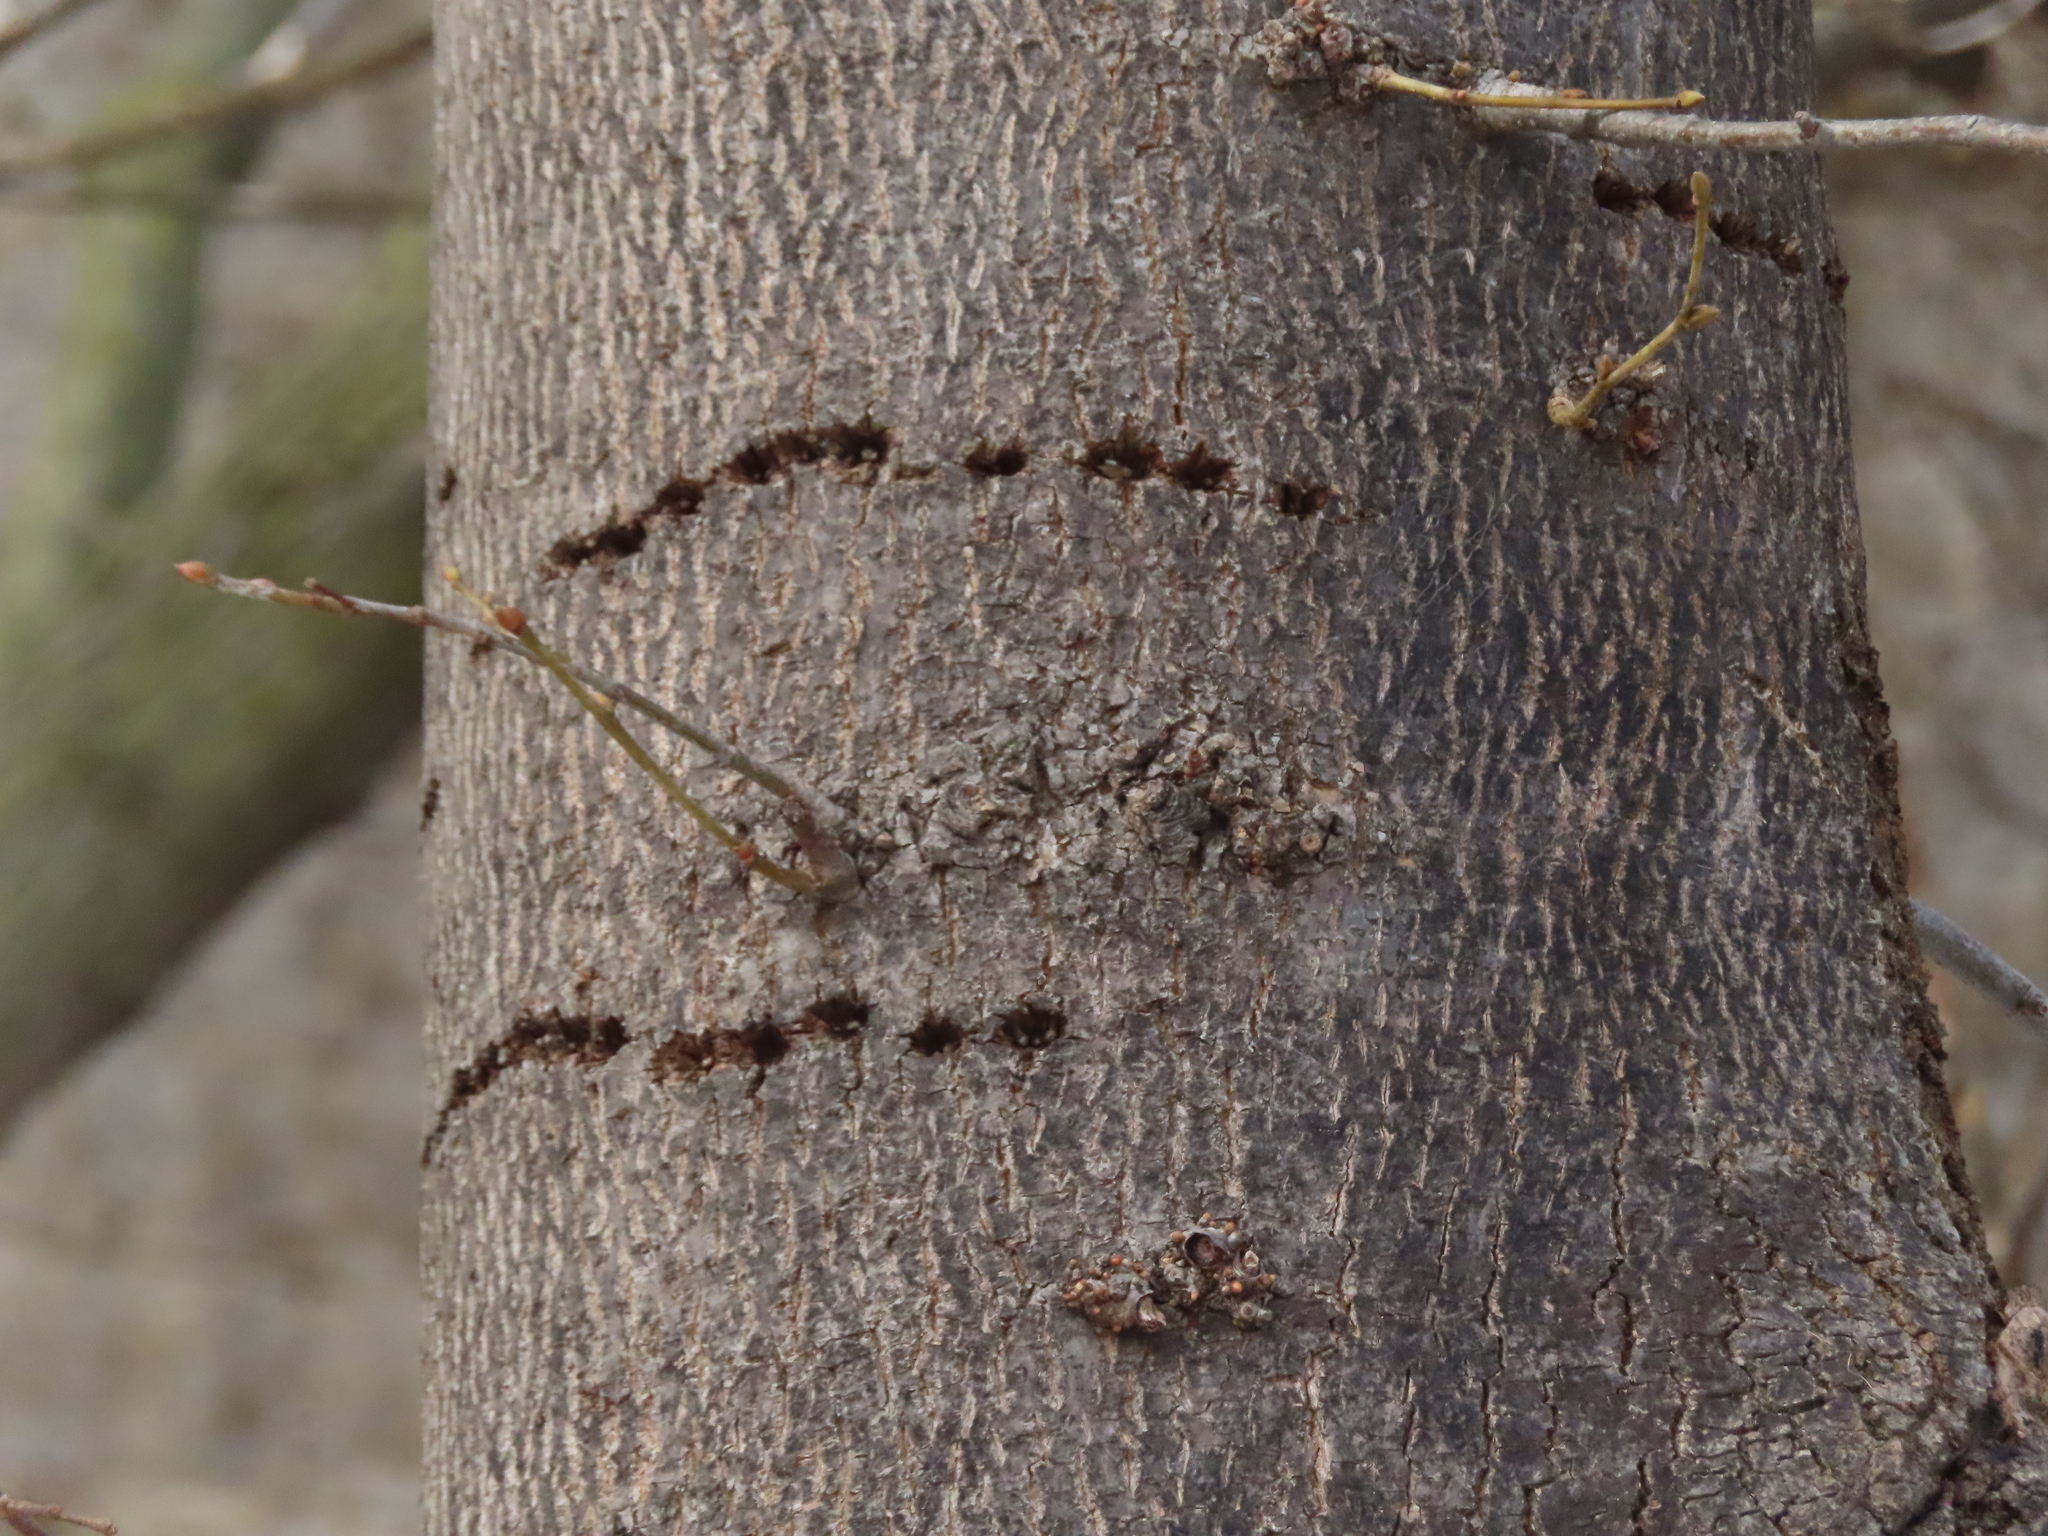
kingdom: Animalia
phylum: Chordata
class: Aves
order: Piciformes
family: Picidae
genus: Sphyrapicus
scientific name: Sphyrapicus varius
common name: Yellow-bellied sapsucker
